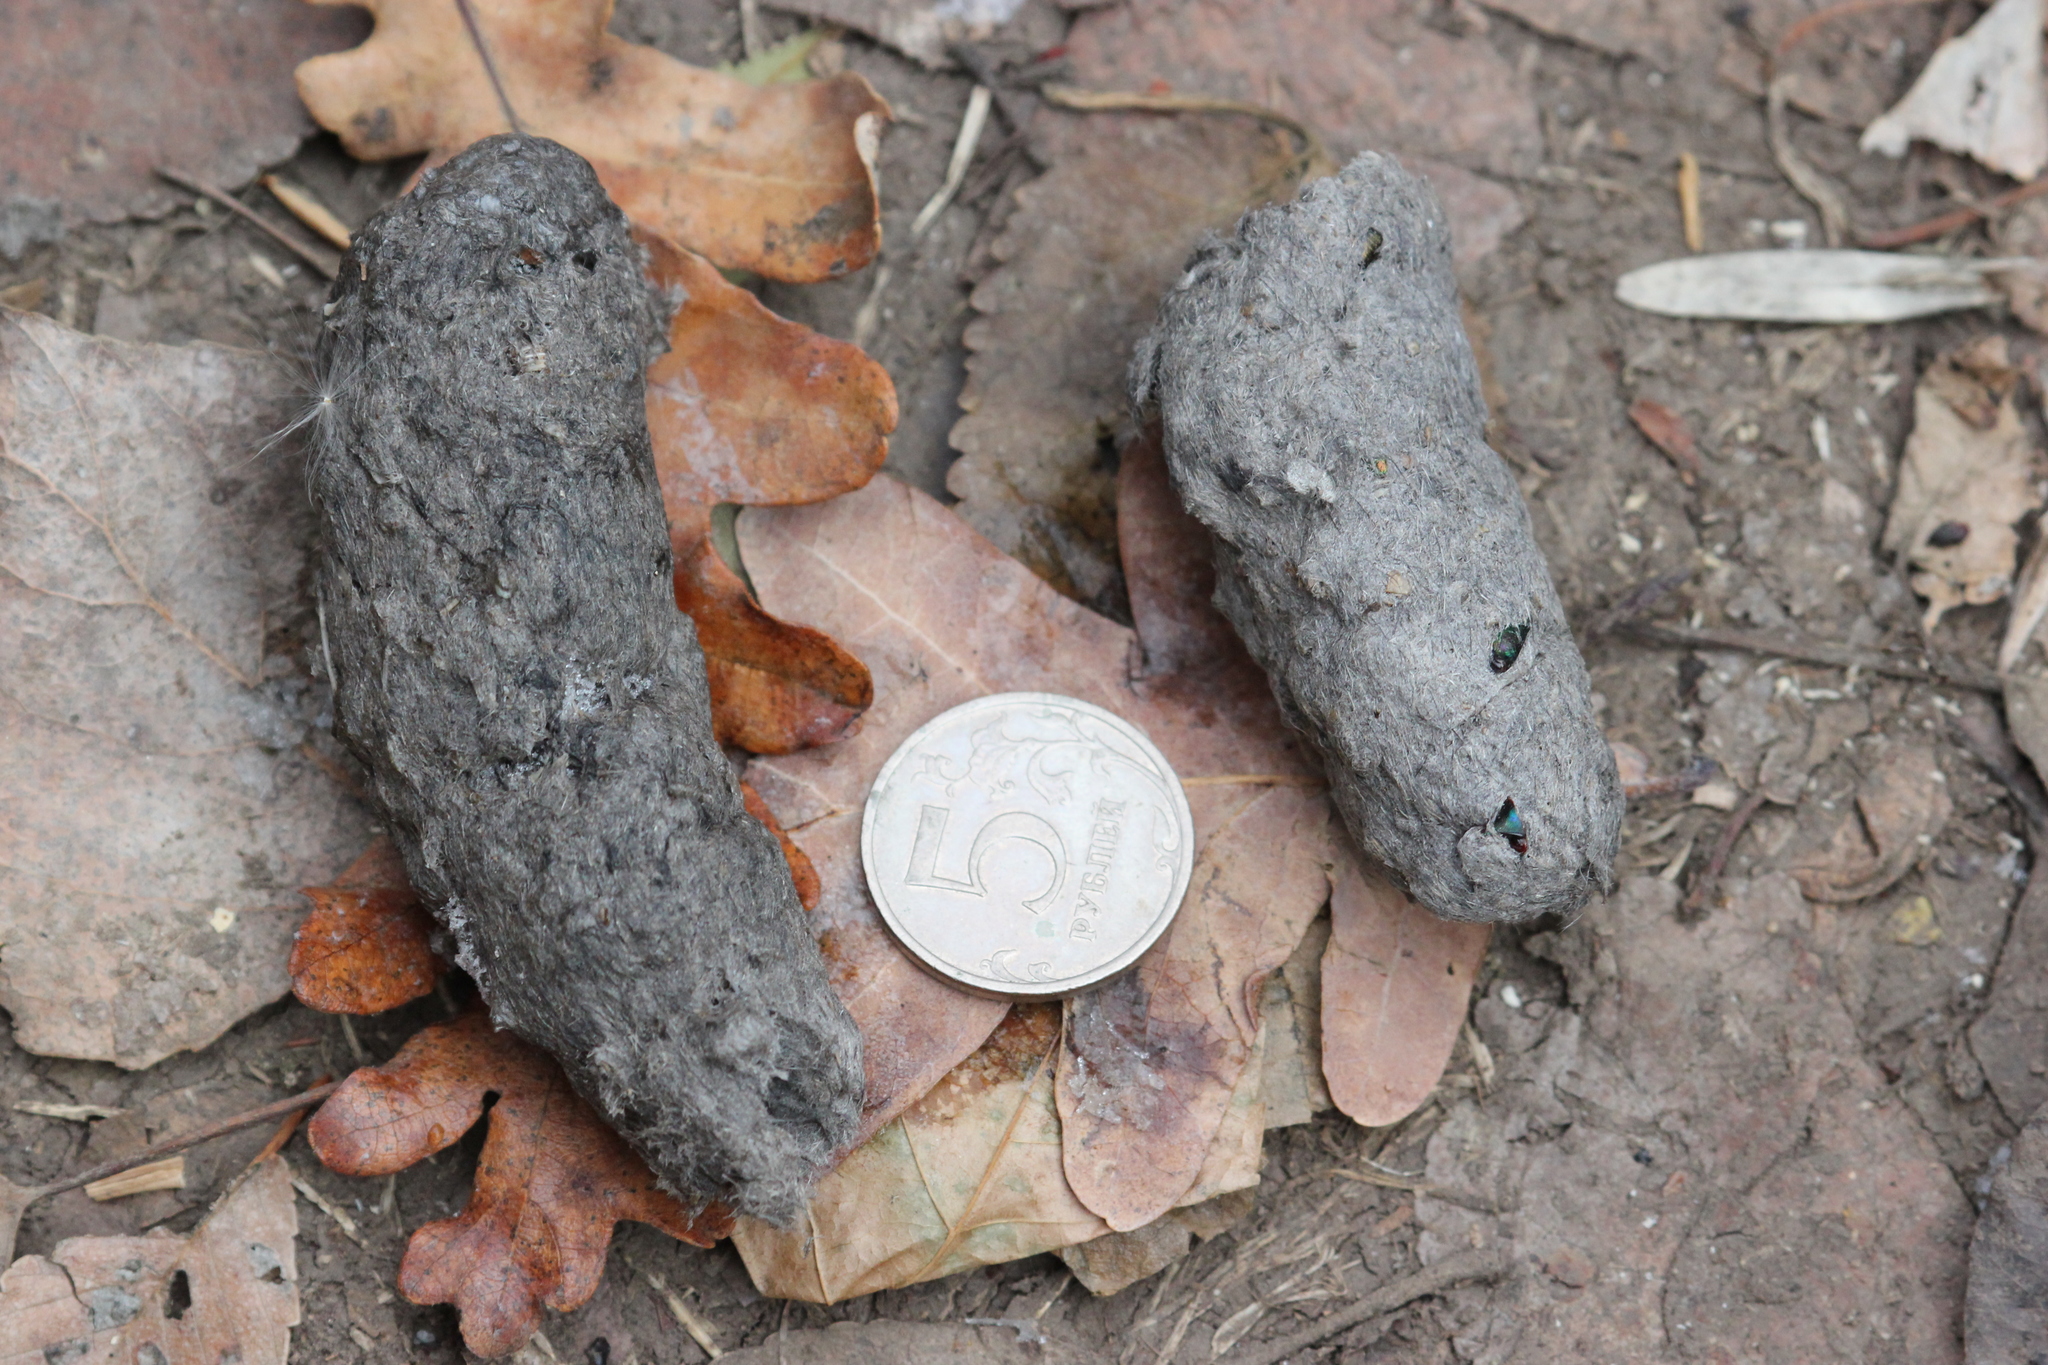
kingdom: Animalia
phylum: Chordata
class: Aves
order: Strigiformes
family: Strigidae
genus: Strix
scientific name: Strix aluco
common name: Tawny owl
